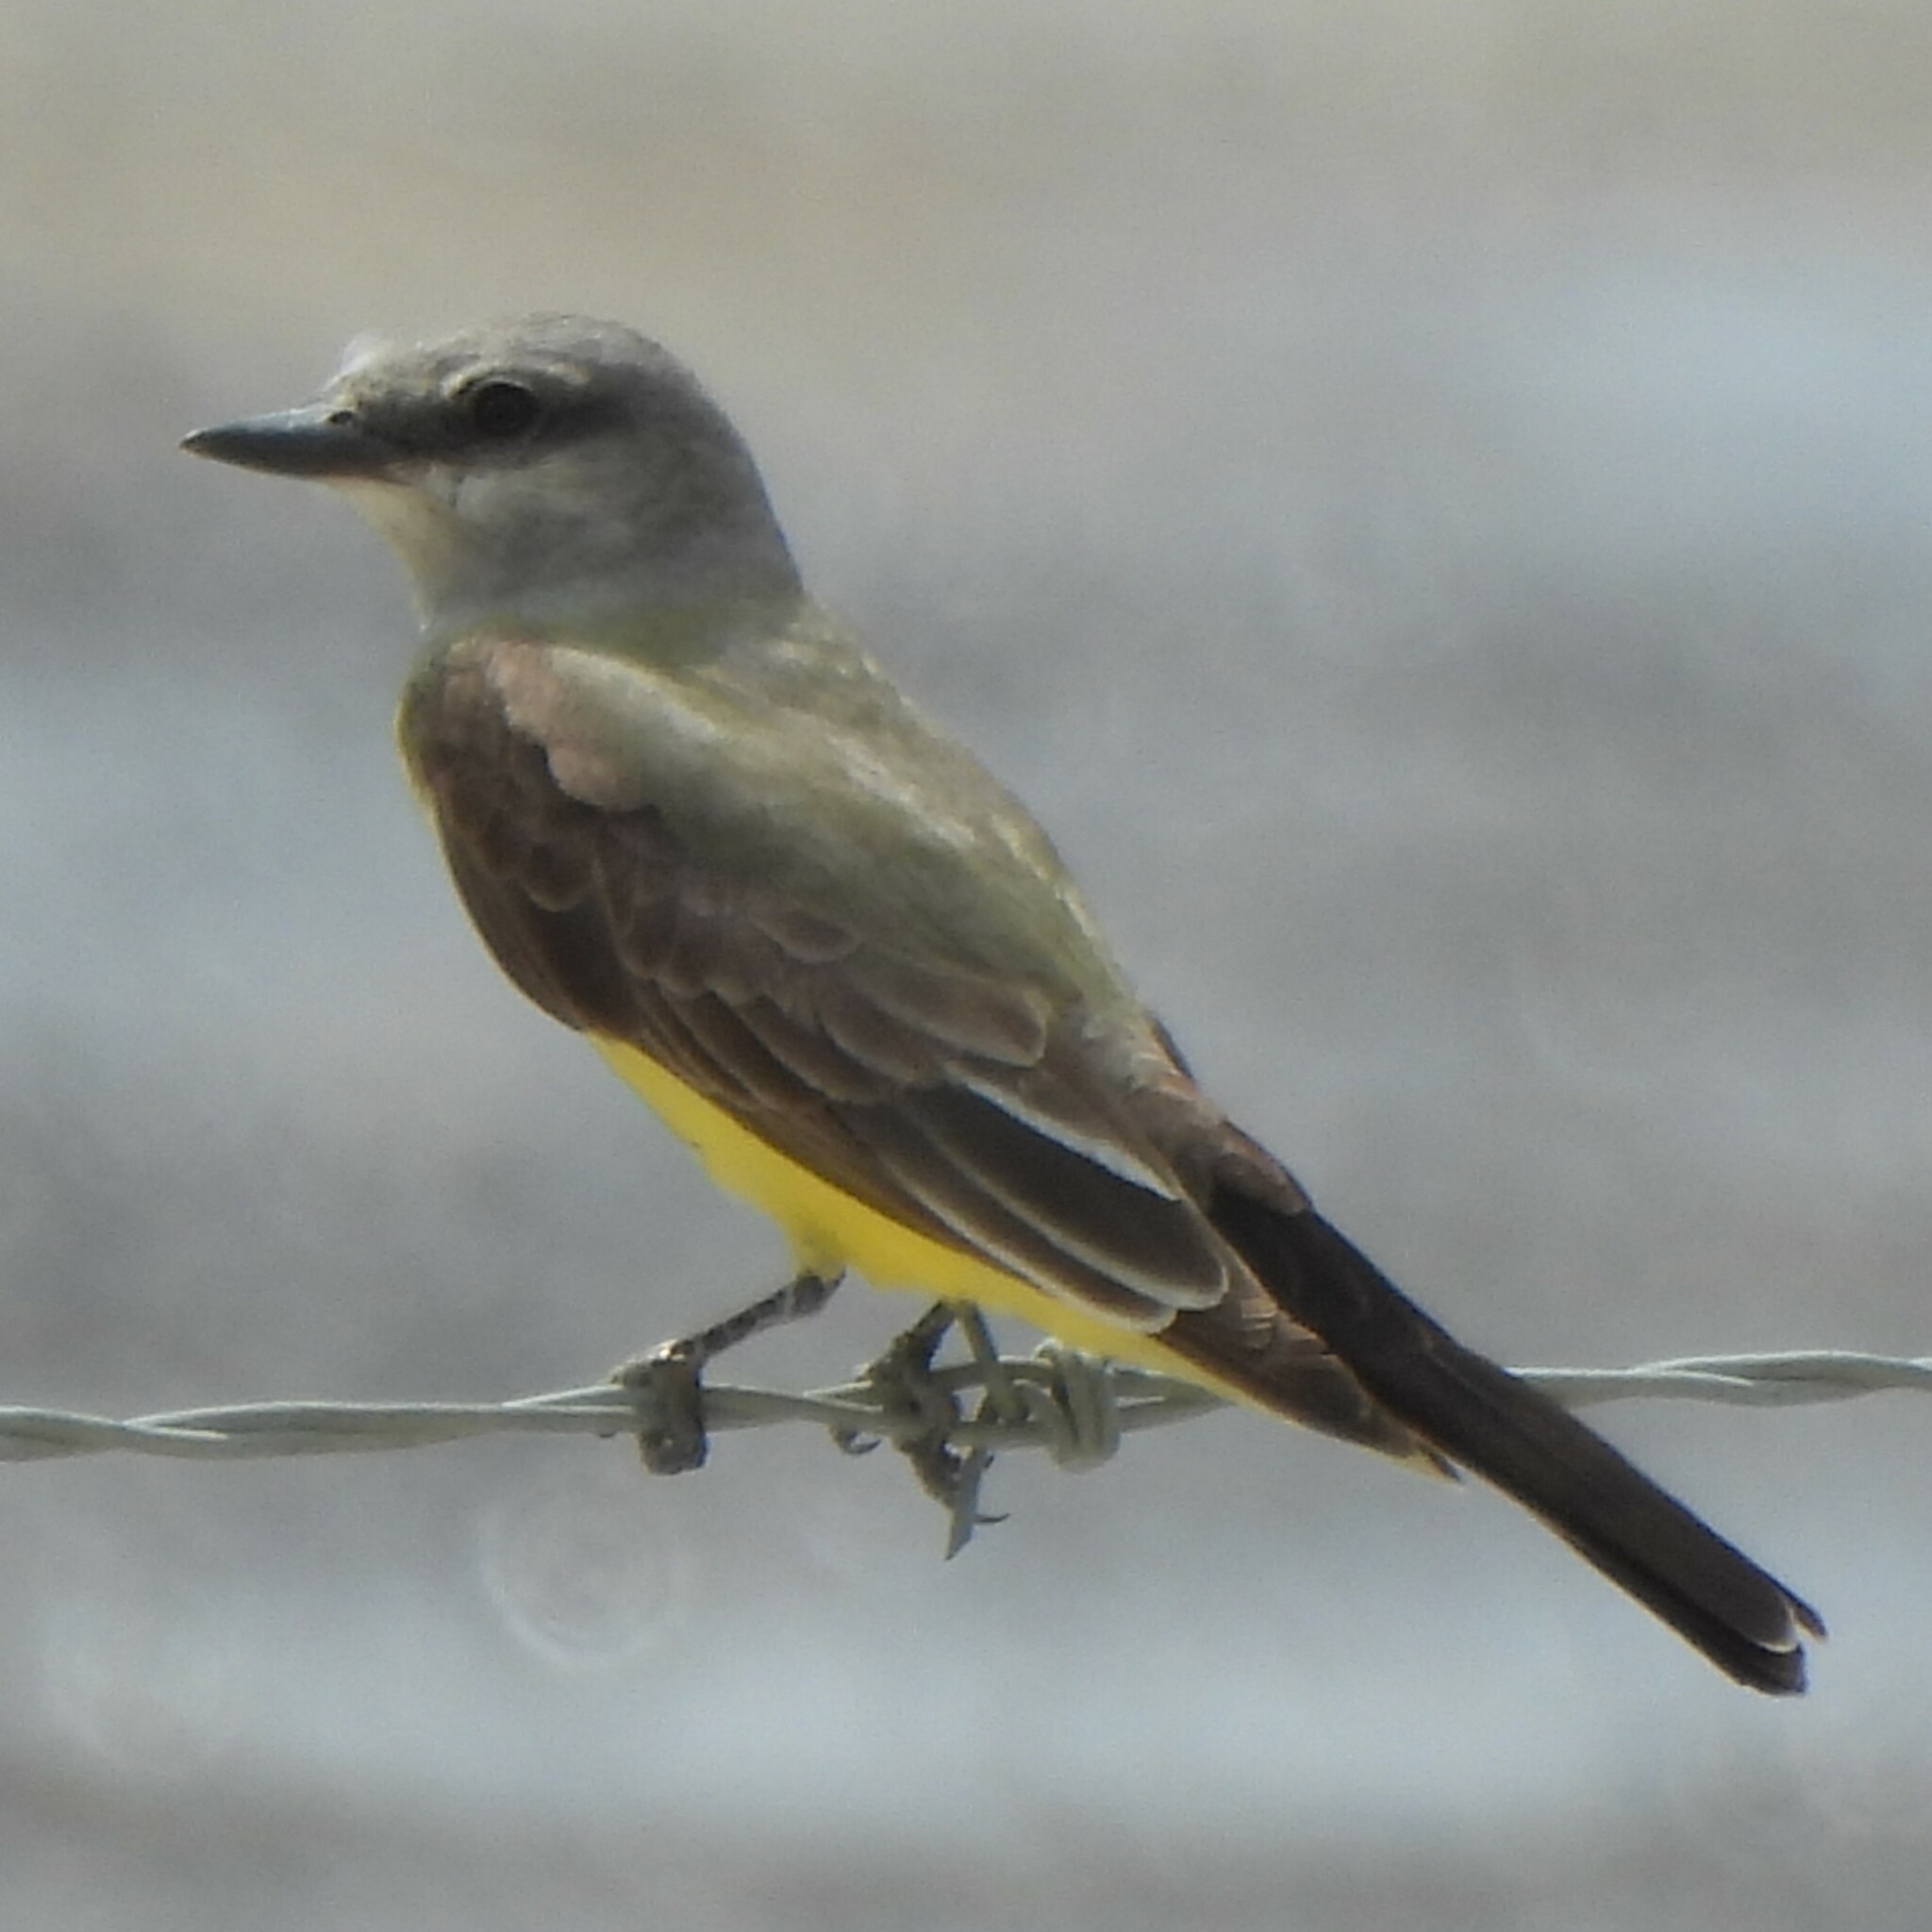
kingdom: Animalia
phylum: Chordata
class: Aves
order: Passeriformes
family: Tyrannidae
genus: Tyrannus
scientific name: Tyrannus verticalis
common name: Western kingbird
